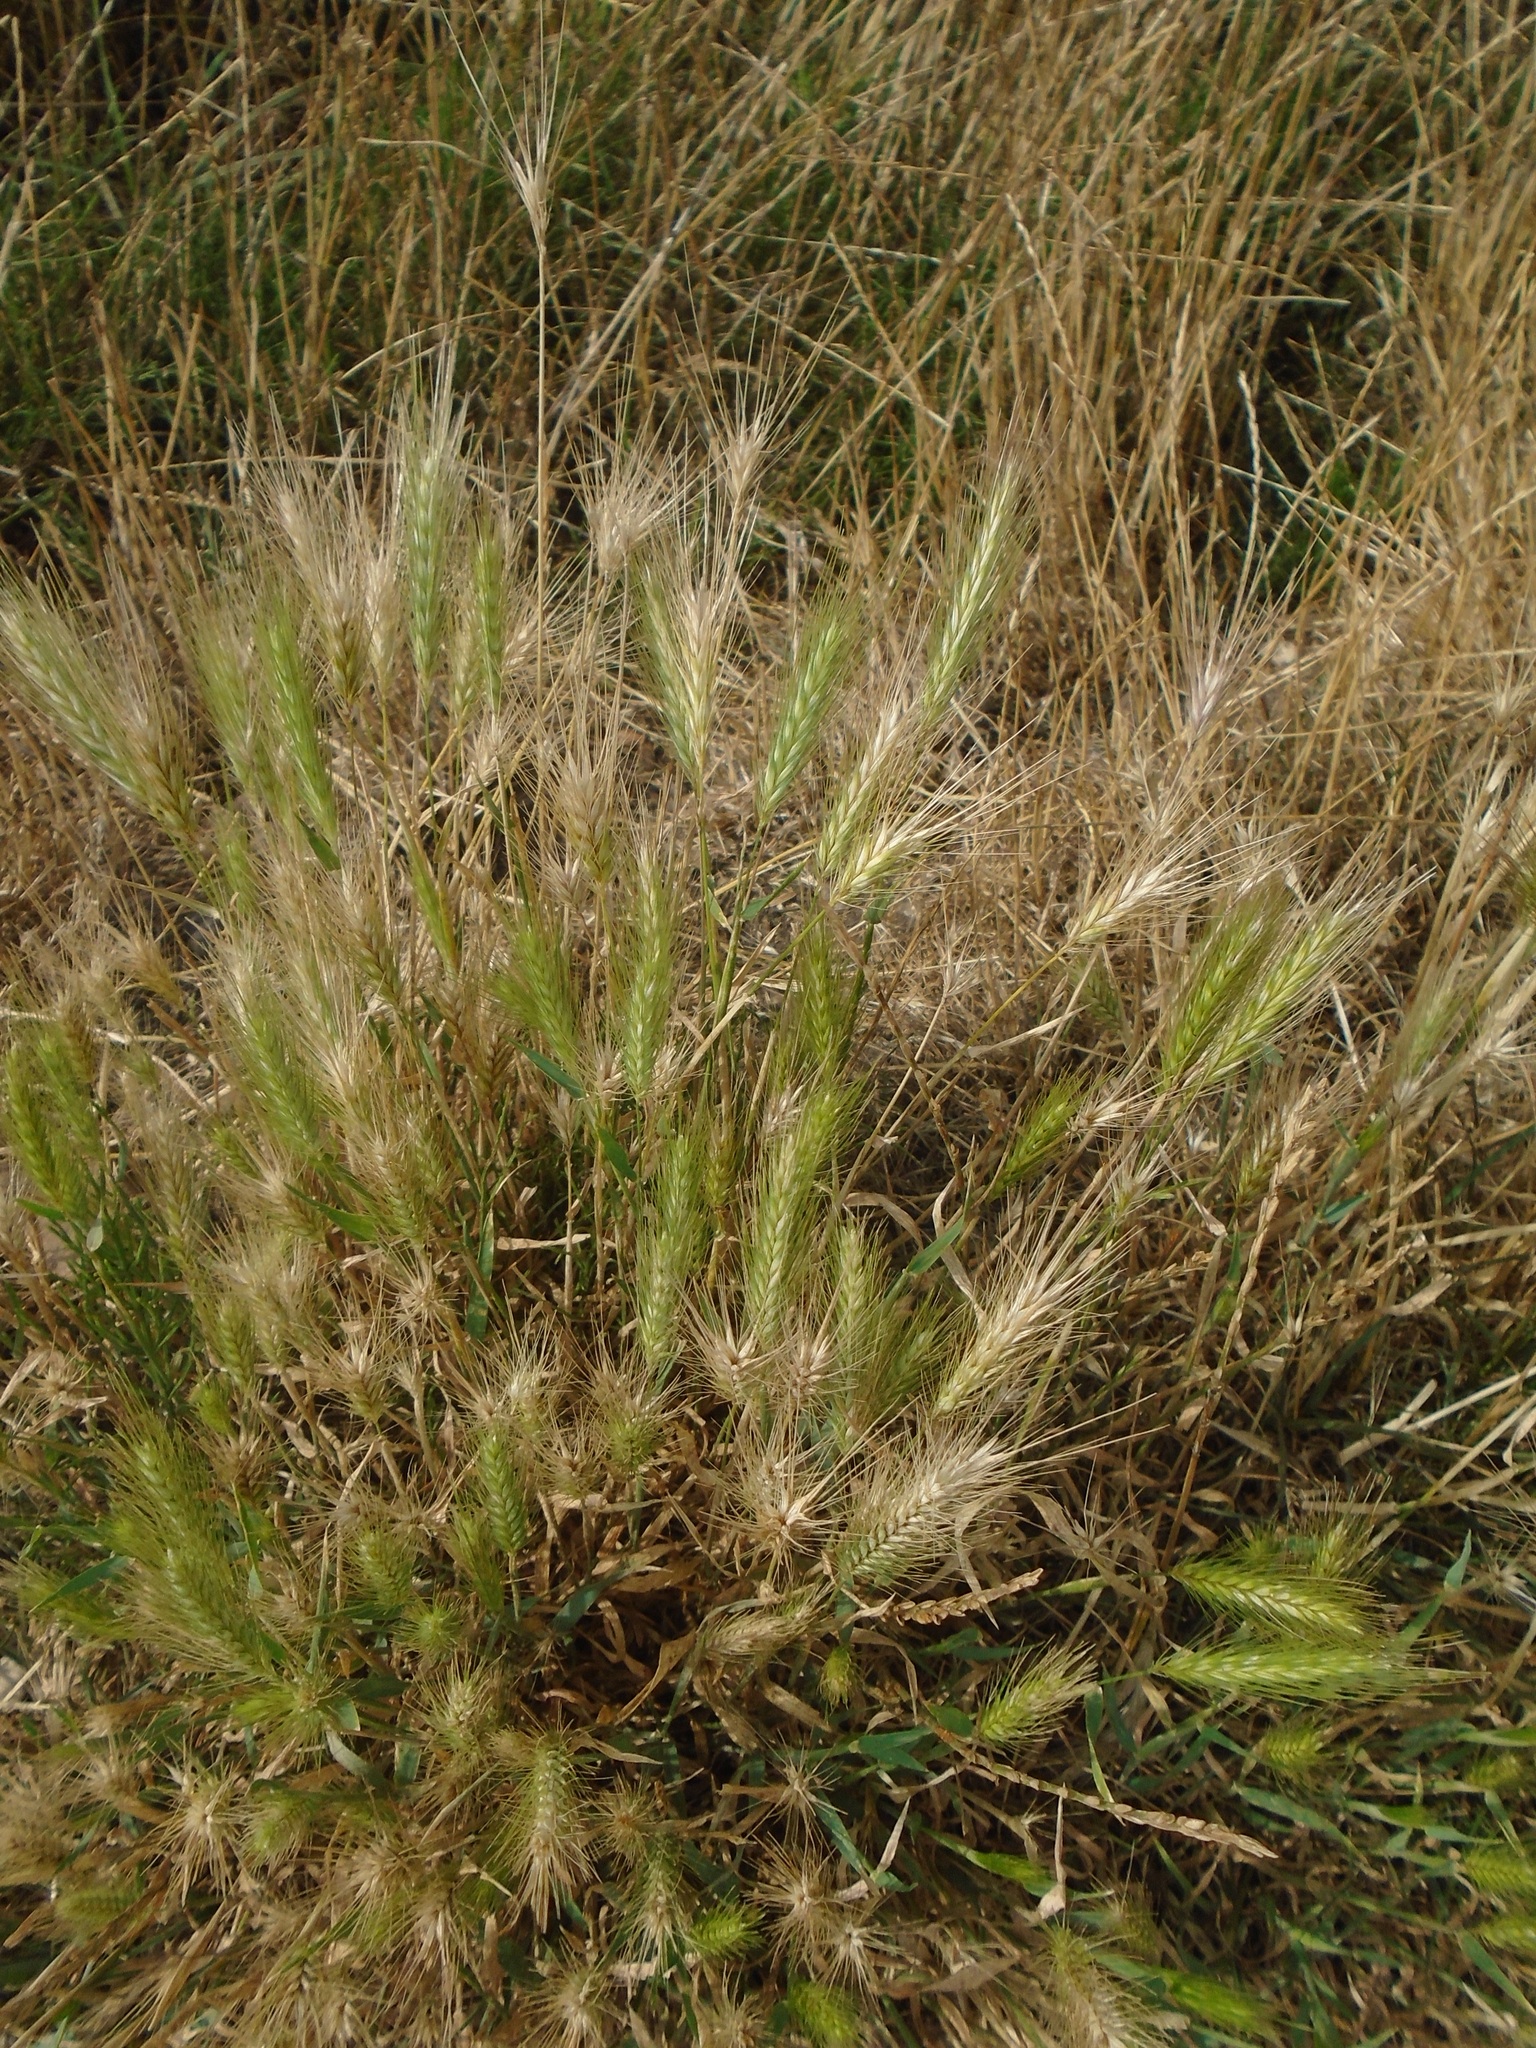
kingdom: Plantae
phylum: Tracheophyta
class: Liliopsida
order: Poales
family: Poaceae
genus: Hordeum
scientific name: Hordeum murinum
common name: Wall barley
